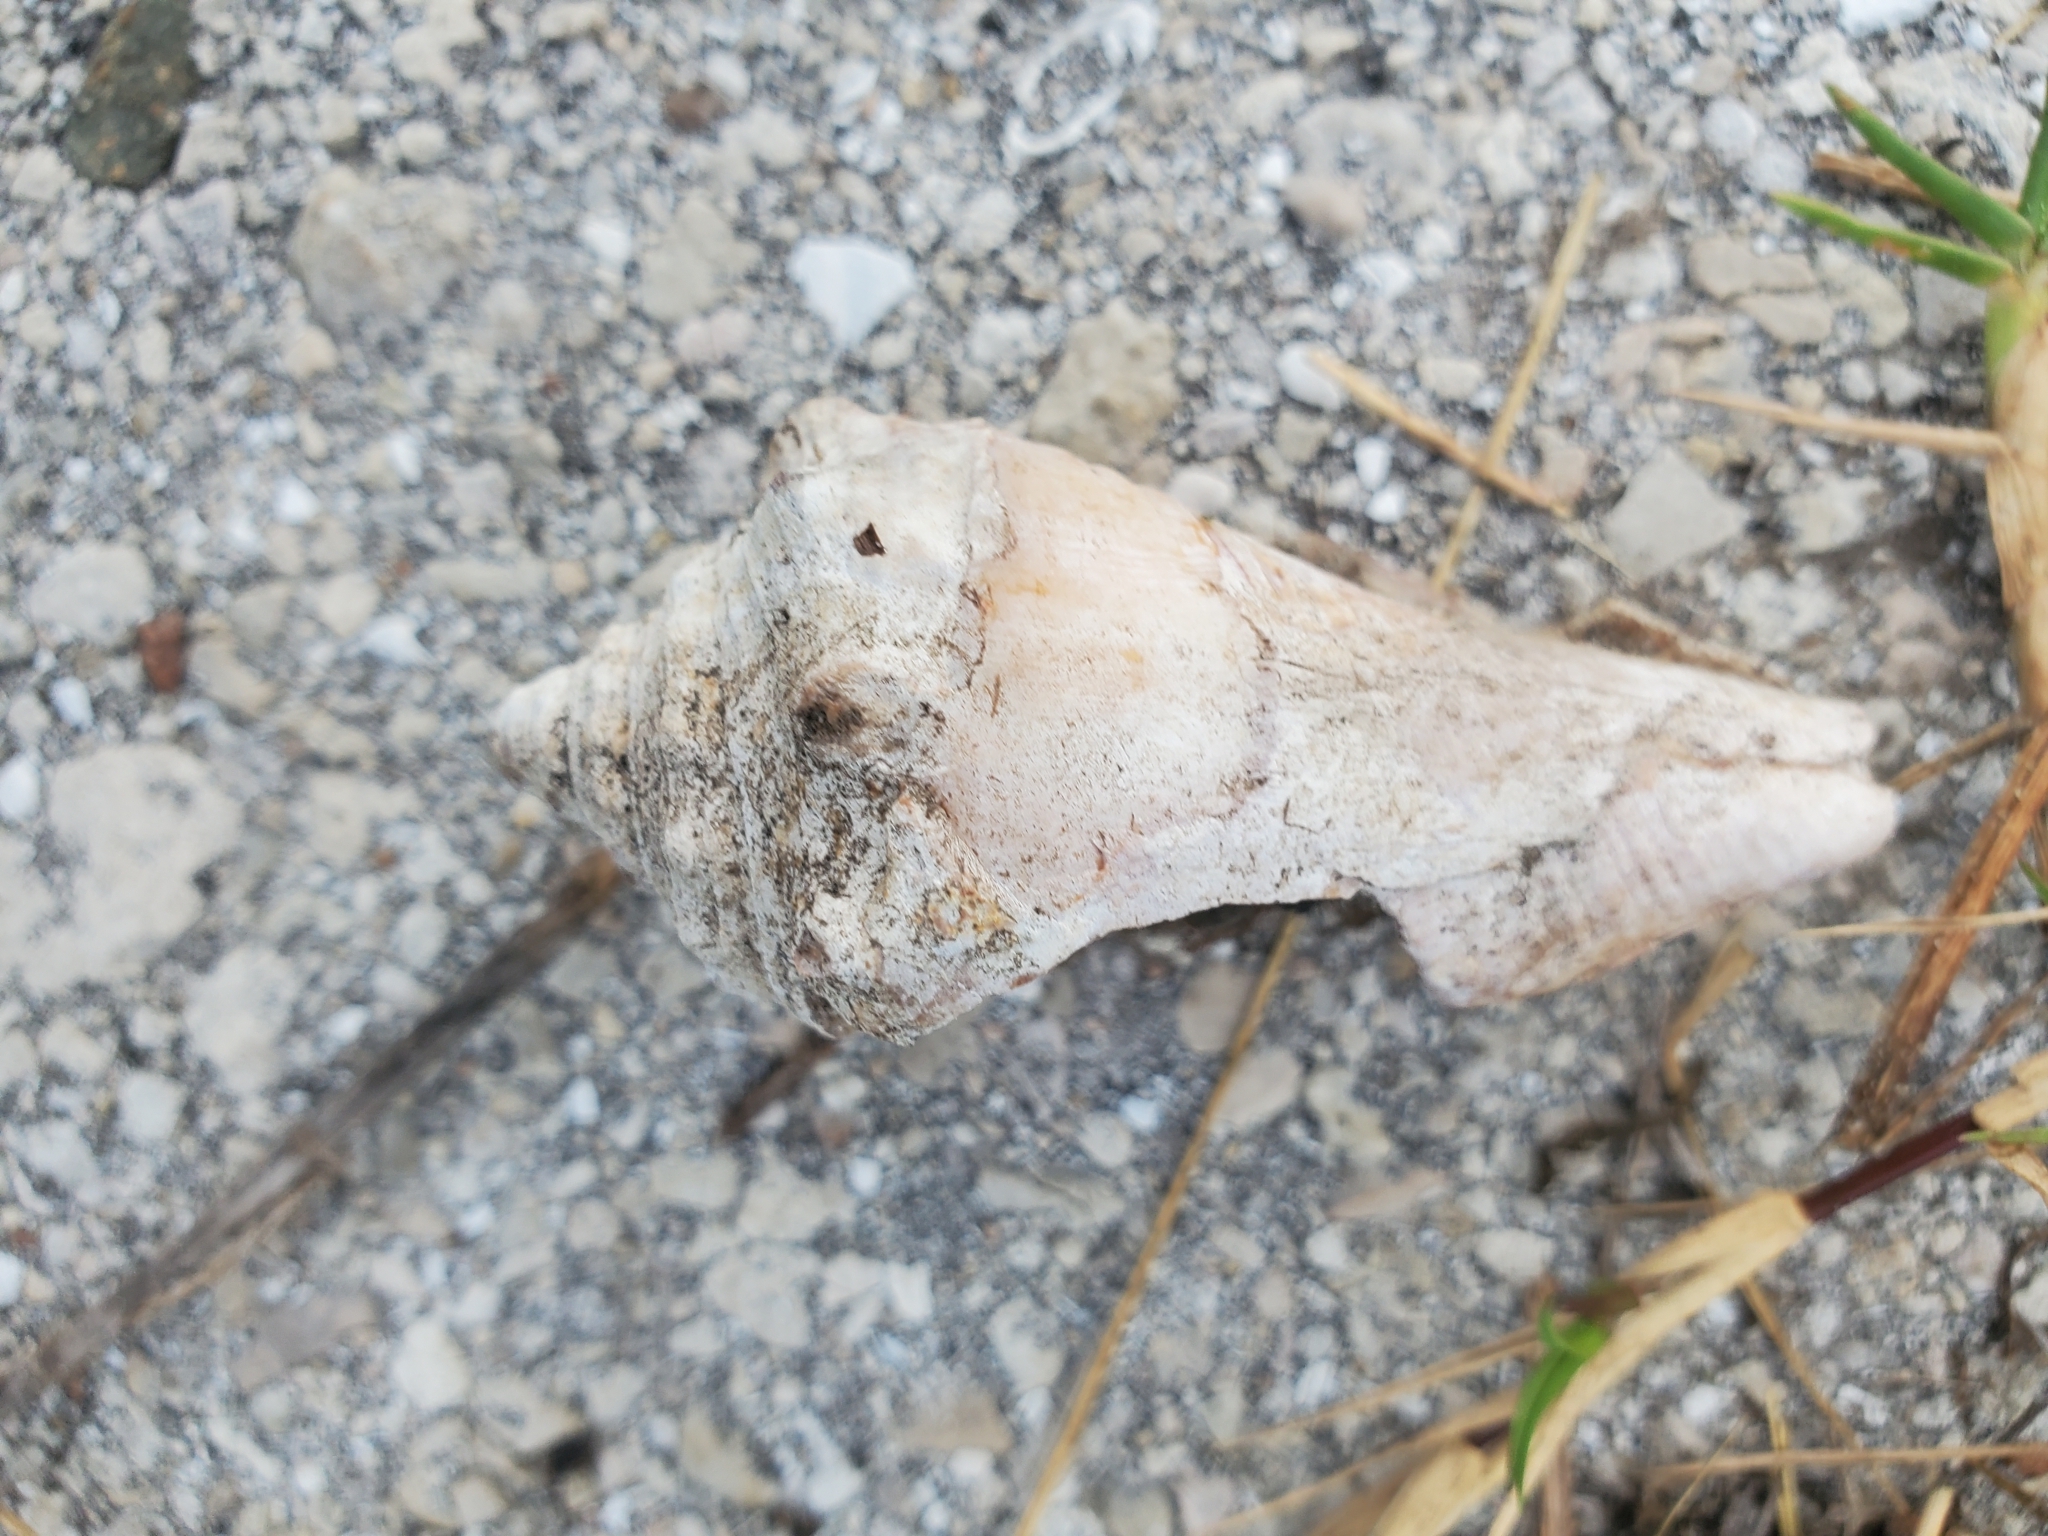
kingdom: Animalia
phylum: Mollusca
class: Gastropoda
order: Littorinimorpha
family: Strombidae
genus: Strombus
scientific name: Strombus alatus
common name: Florida fighting conch
